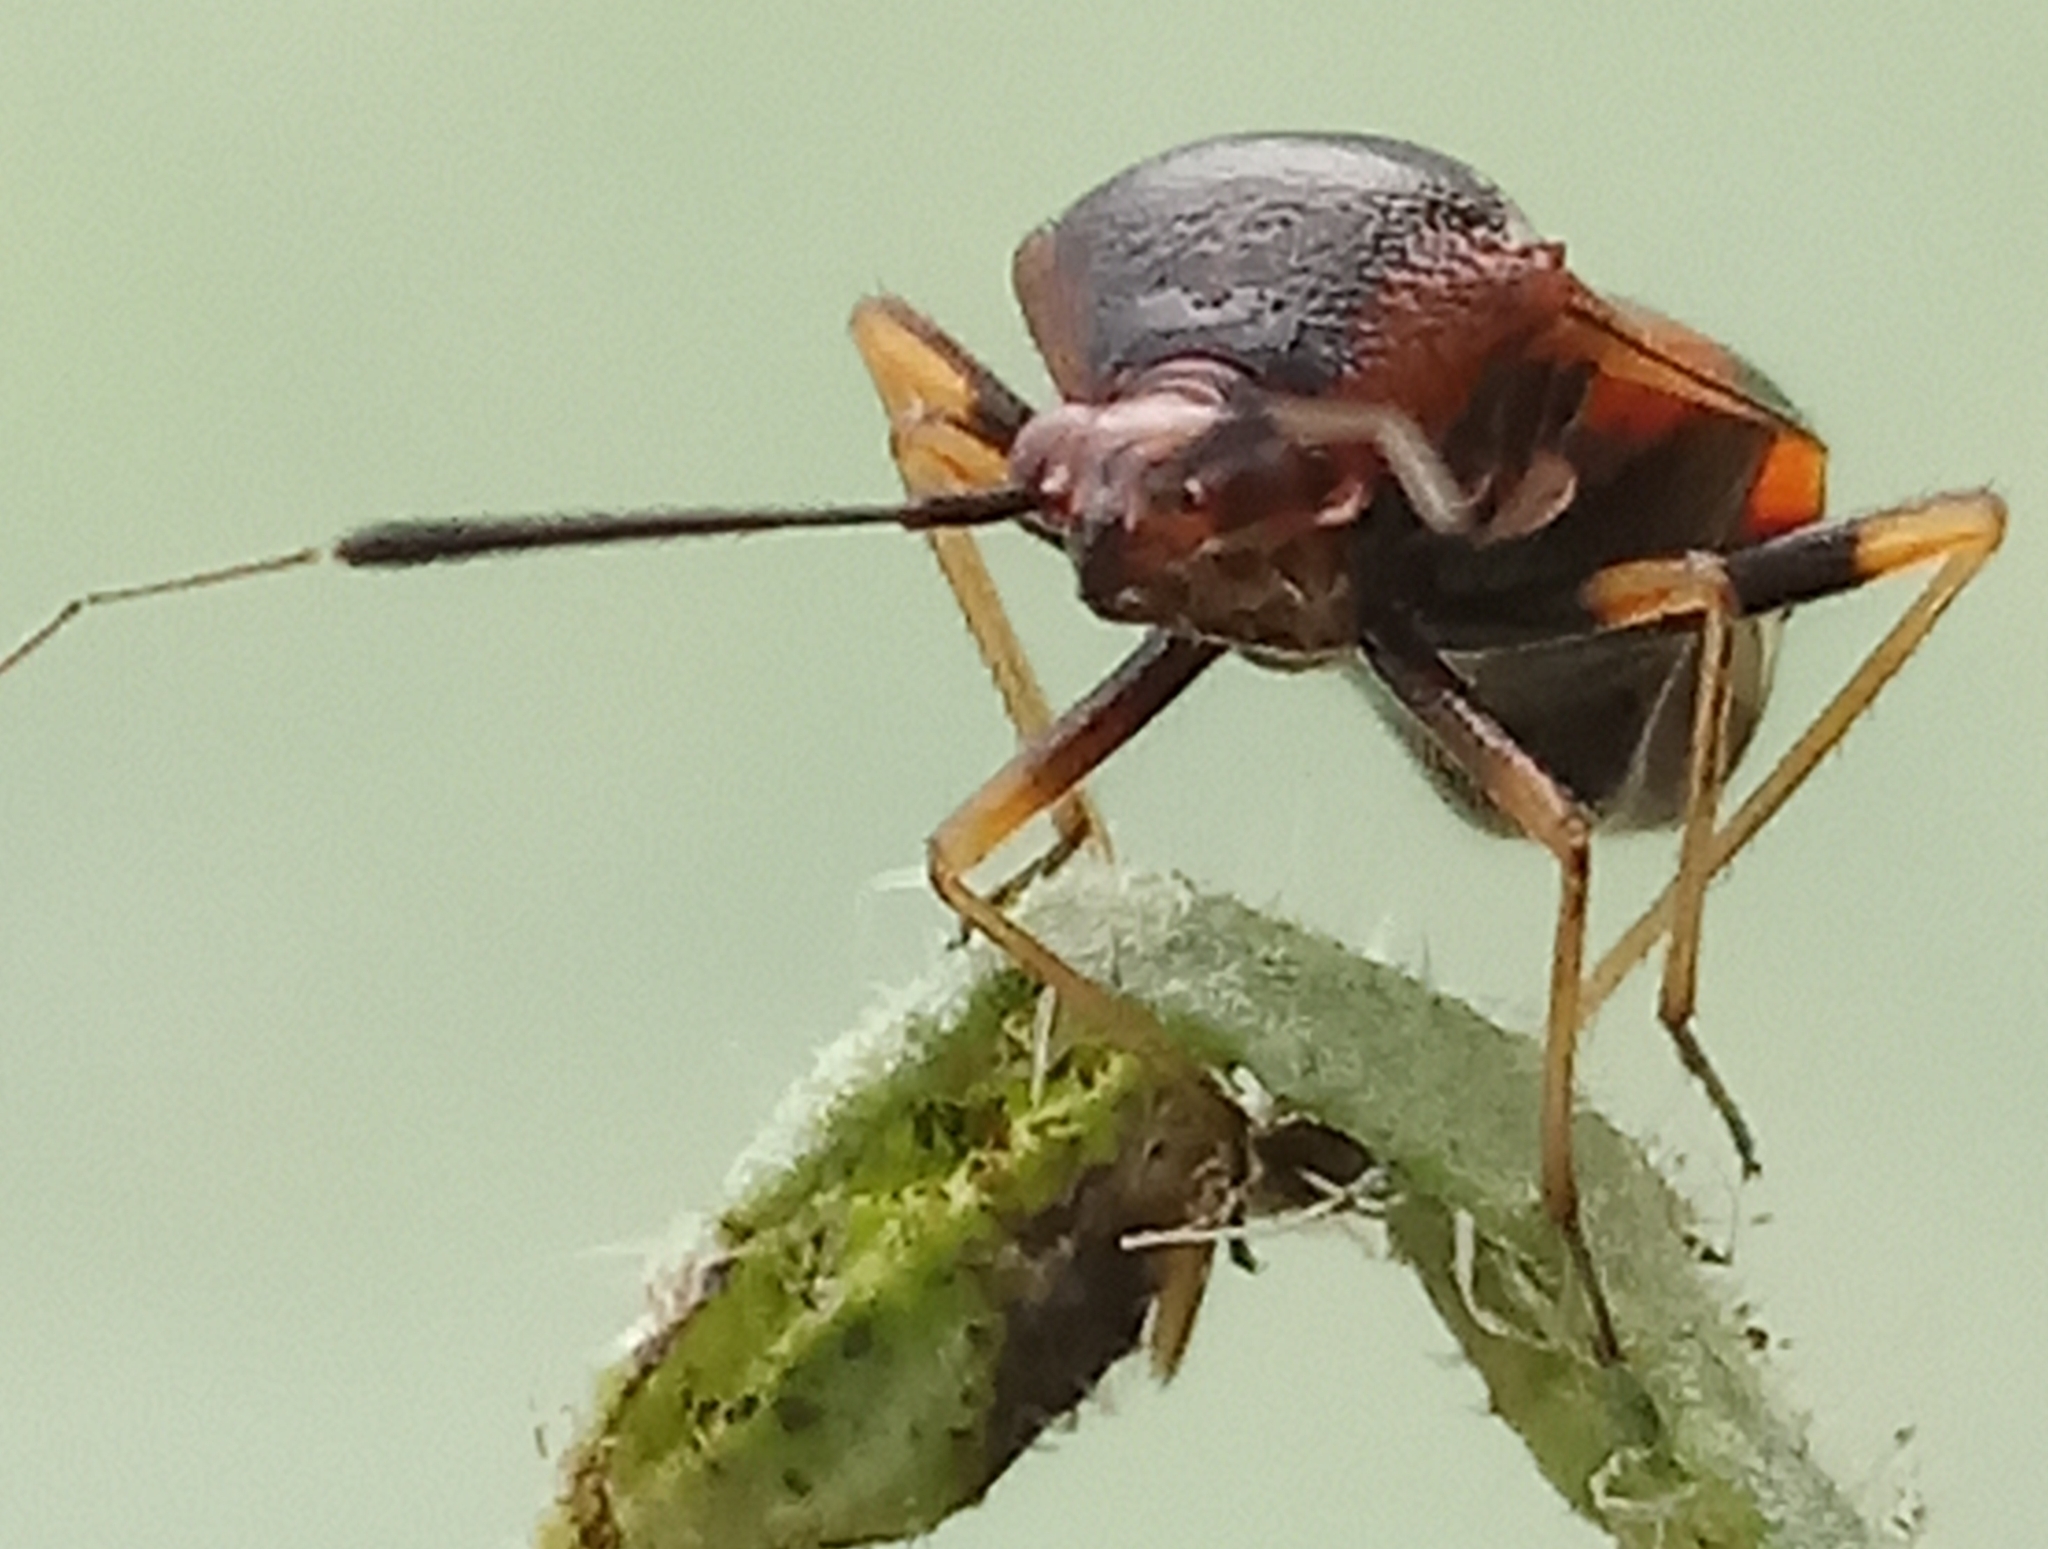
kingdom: Animalia
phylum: Arthropoda
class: Insecta
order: Hemiptera
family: Miridae
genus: Deraeocoris
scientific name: Deraeocoris ruber
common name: Plant bug
